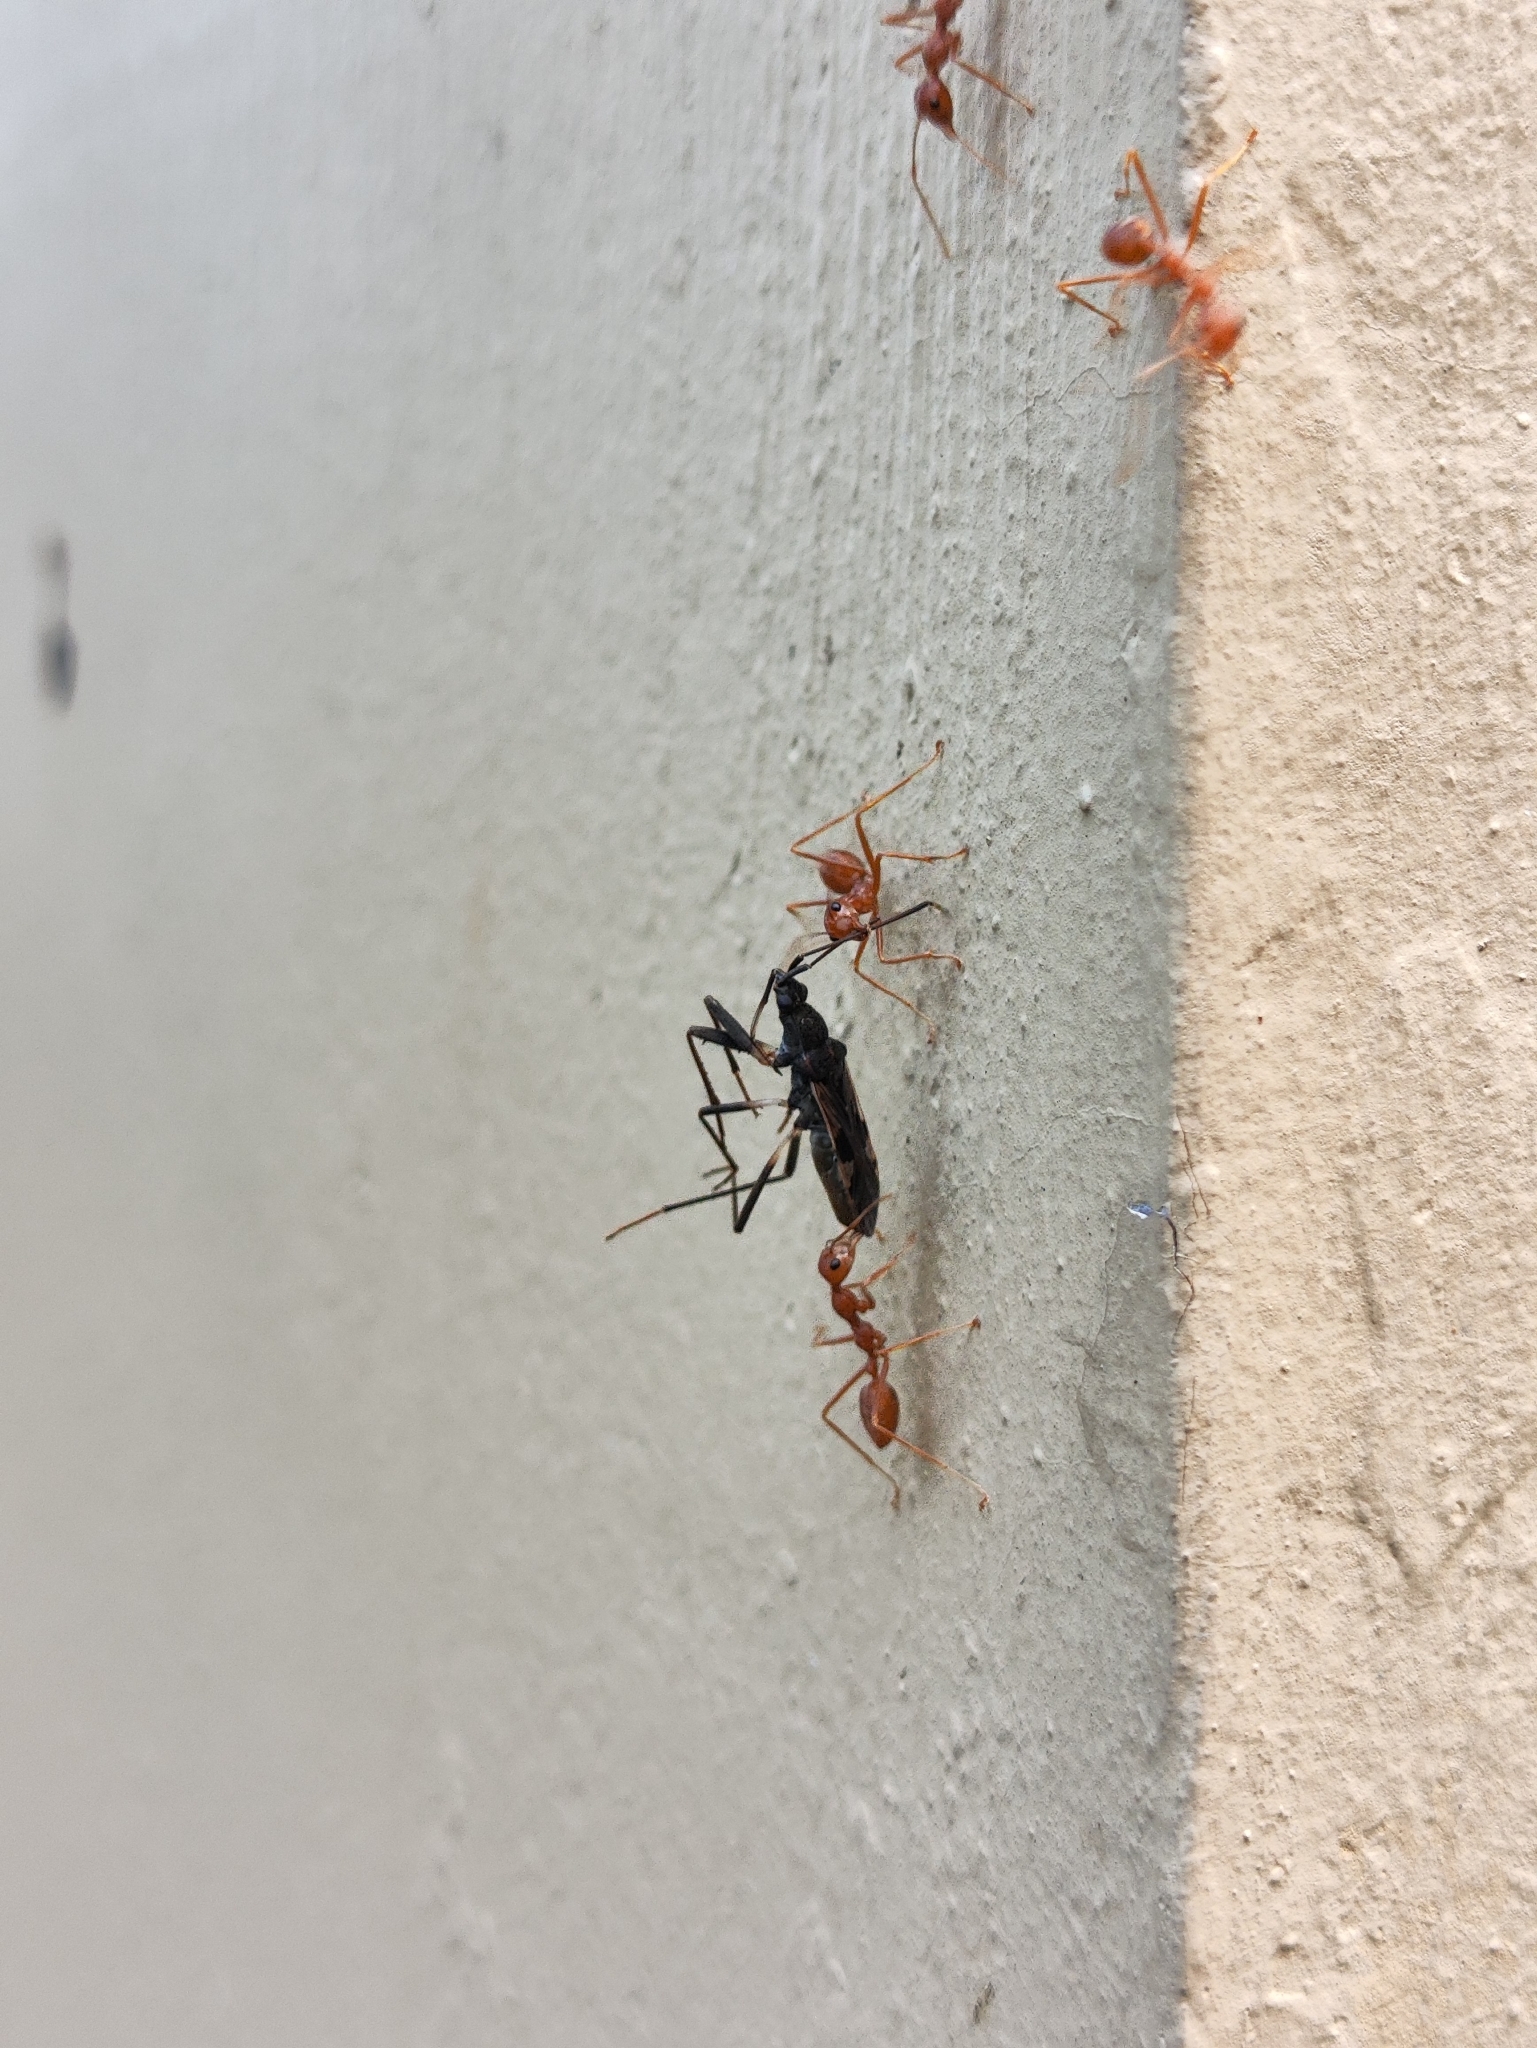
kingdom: Animalia
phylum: Arthropoda
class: Insecta
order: Hymenoptera
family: Formicidae
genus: Oecophylla
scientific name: Oecophylla smaragdina
